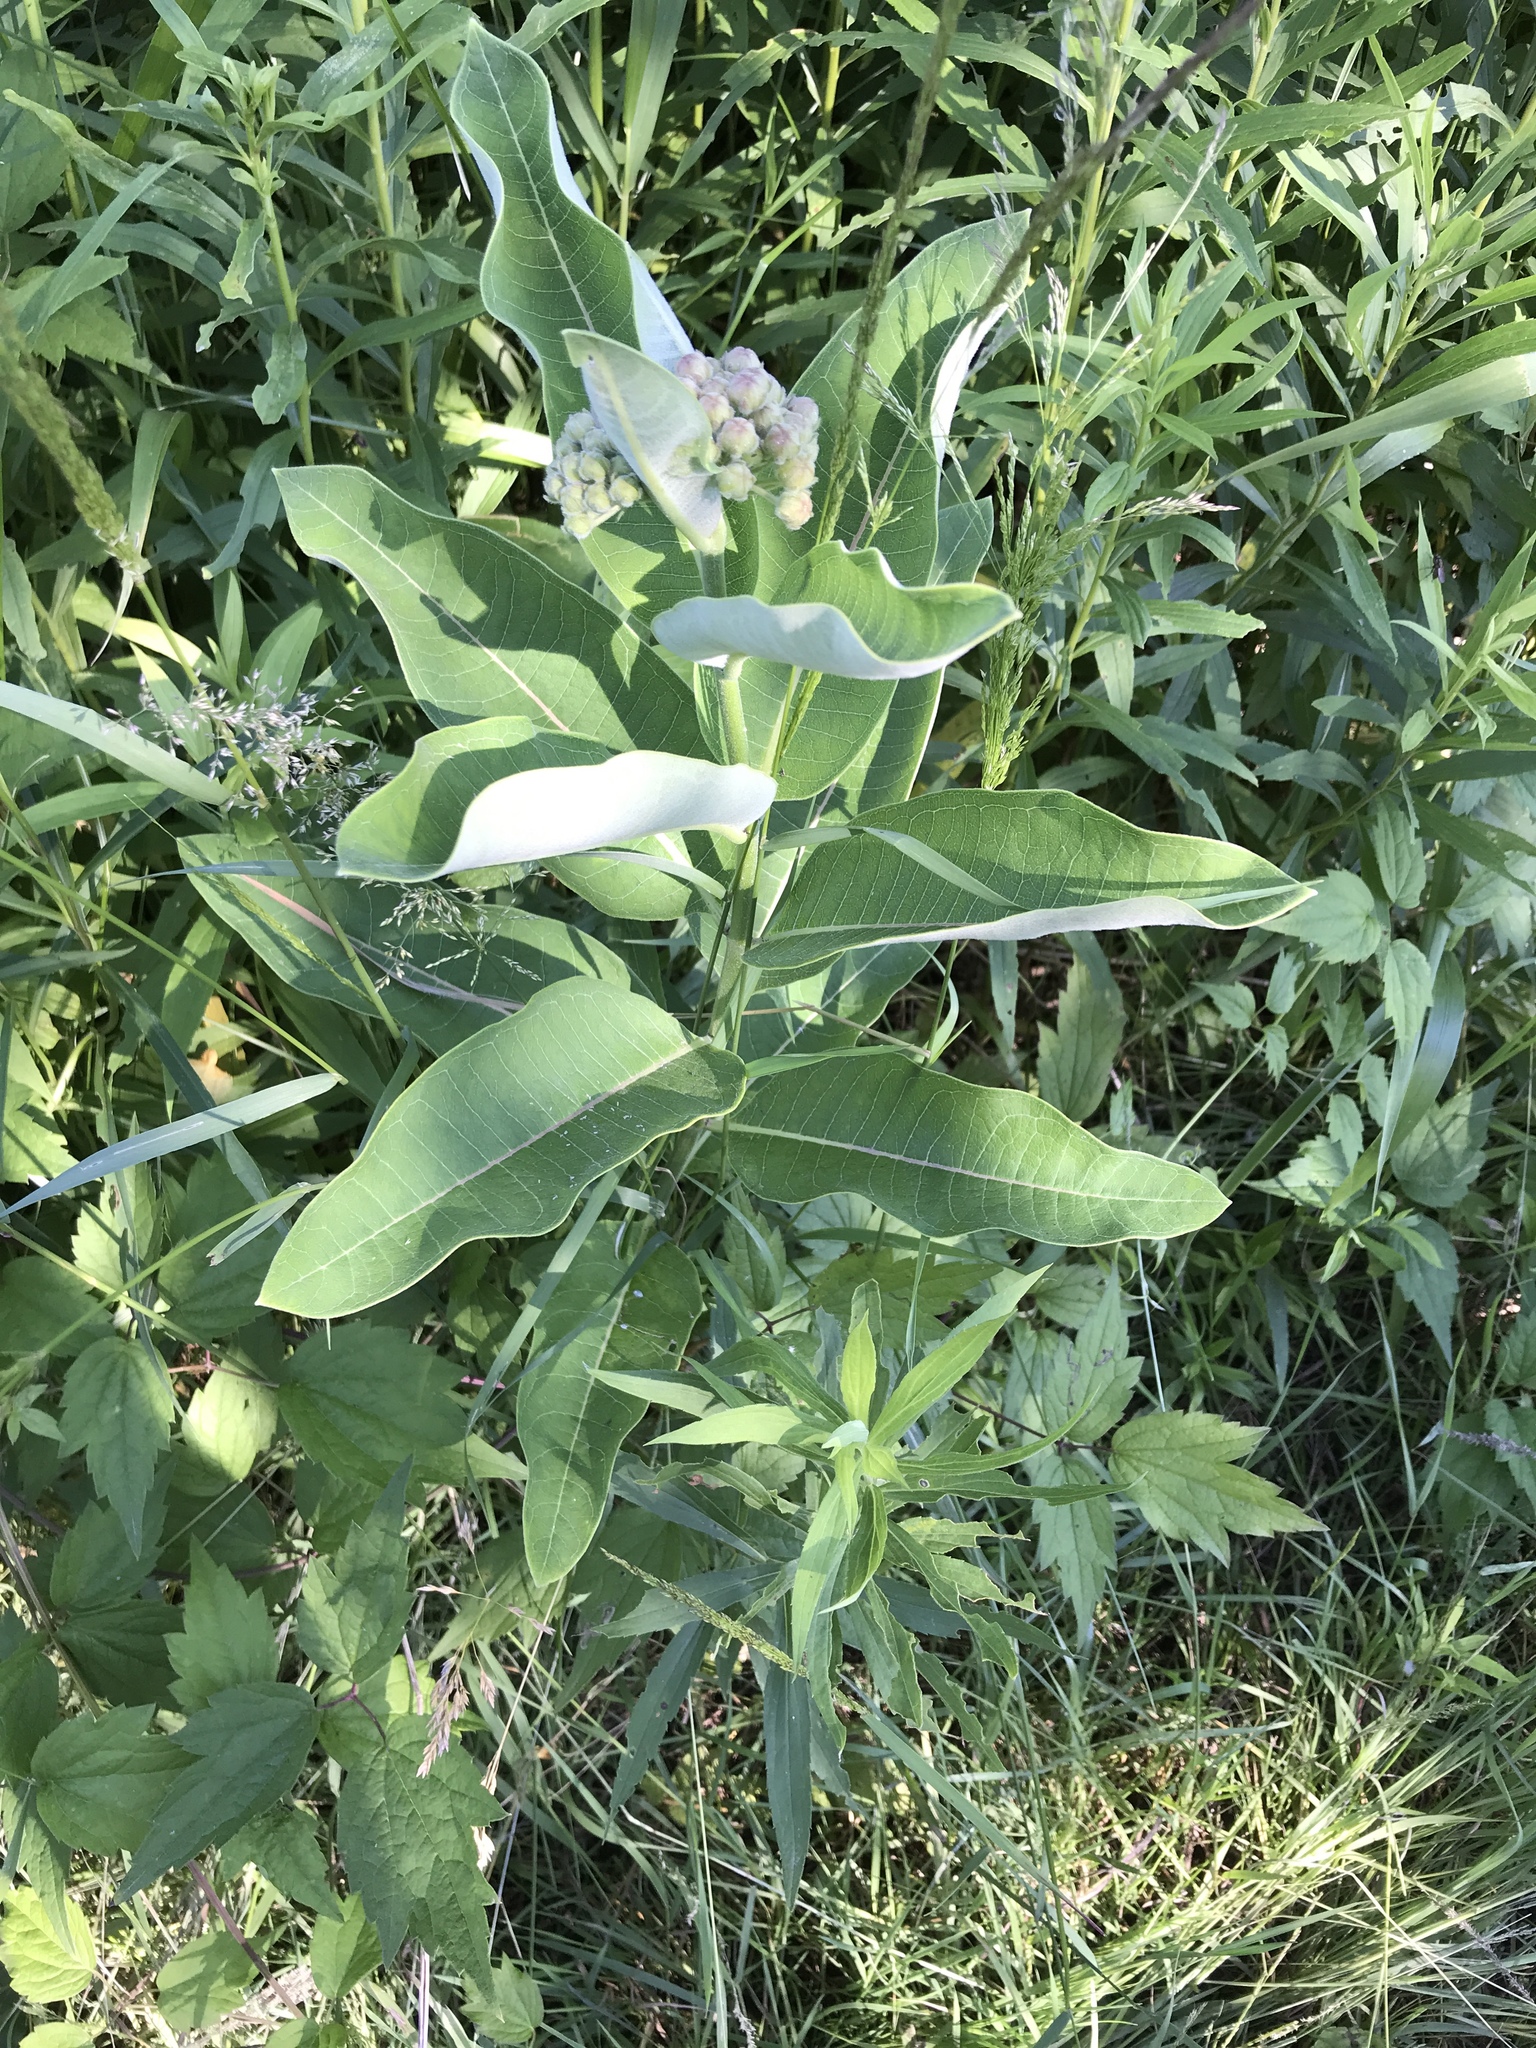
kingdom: Plantae
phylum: Tracheophyta
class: Magnoliopsida
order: Gentianales
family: Apocynaceae
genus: Asclepias
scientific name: Asclepias syriaca
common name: Common milkweed
